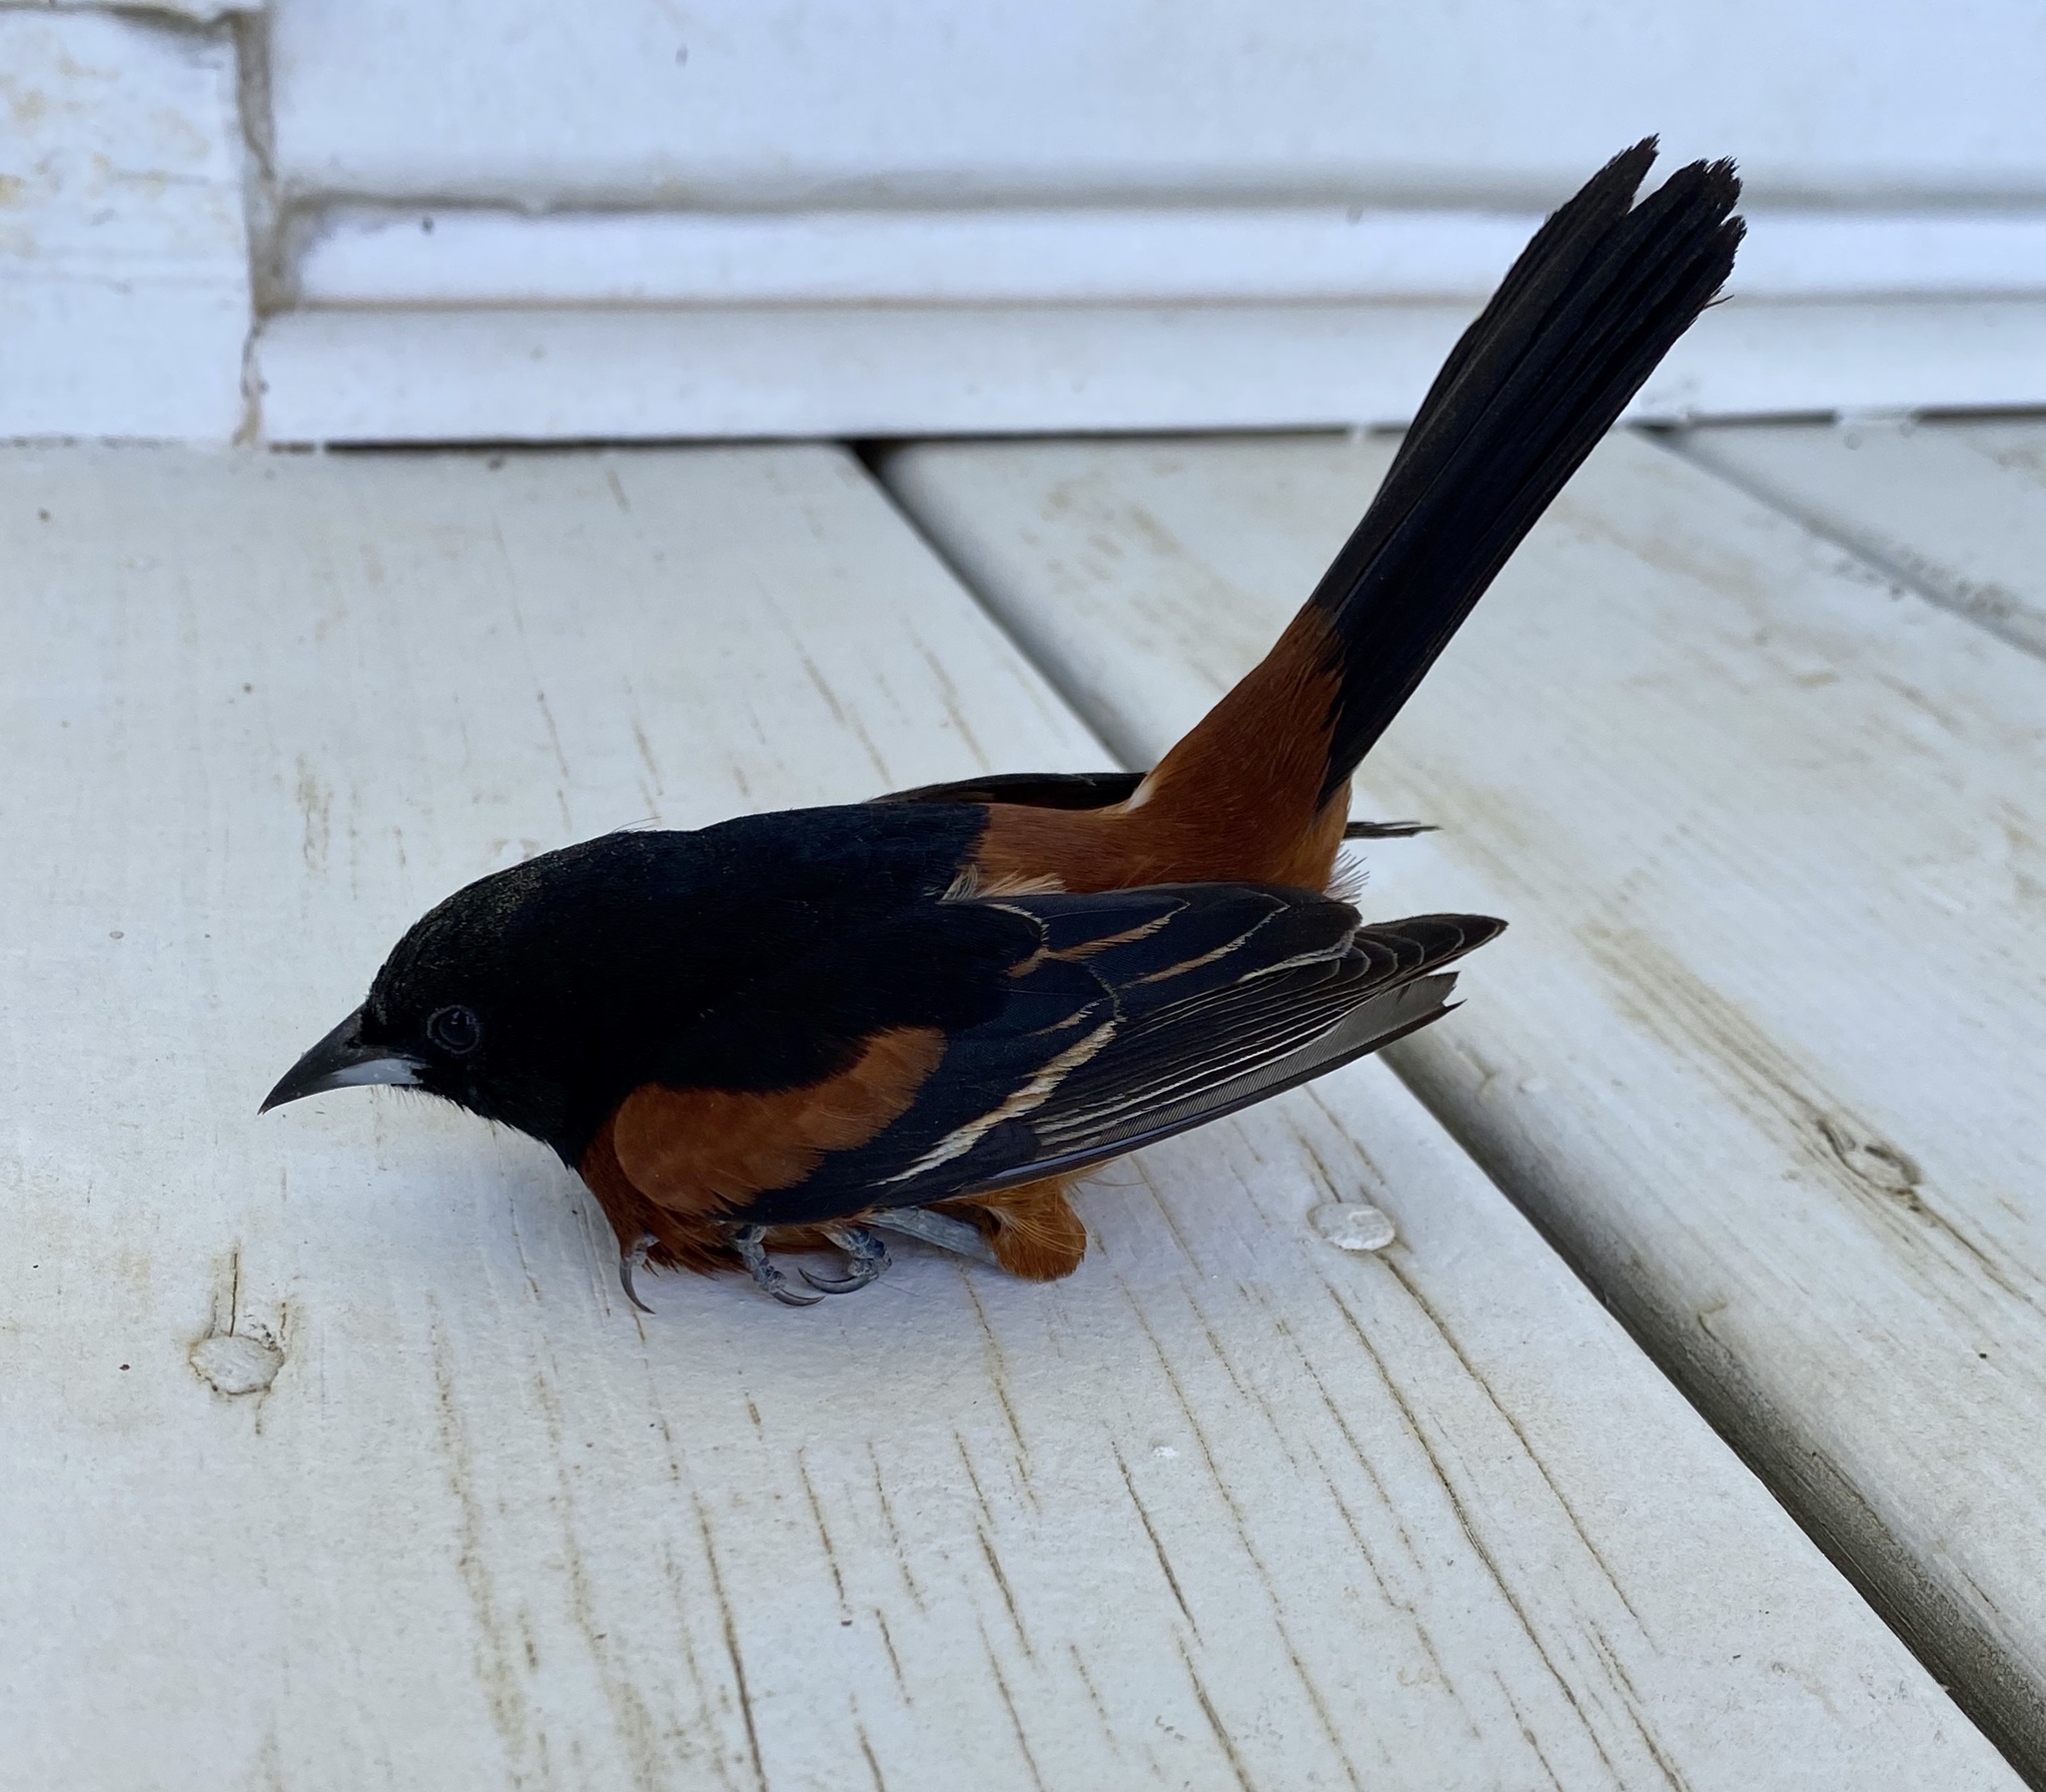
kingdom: Animalia
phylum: Chordata
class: Aves
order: Passeriformes
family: Icteridae
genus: Icterus
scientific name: Icterus spurius
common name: Orchard oriole
